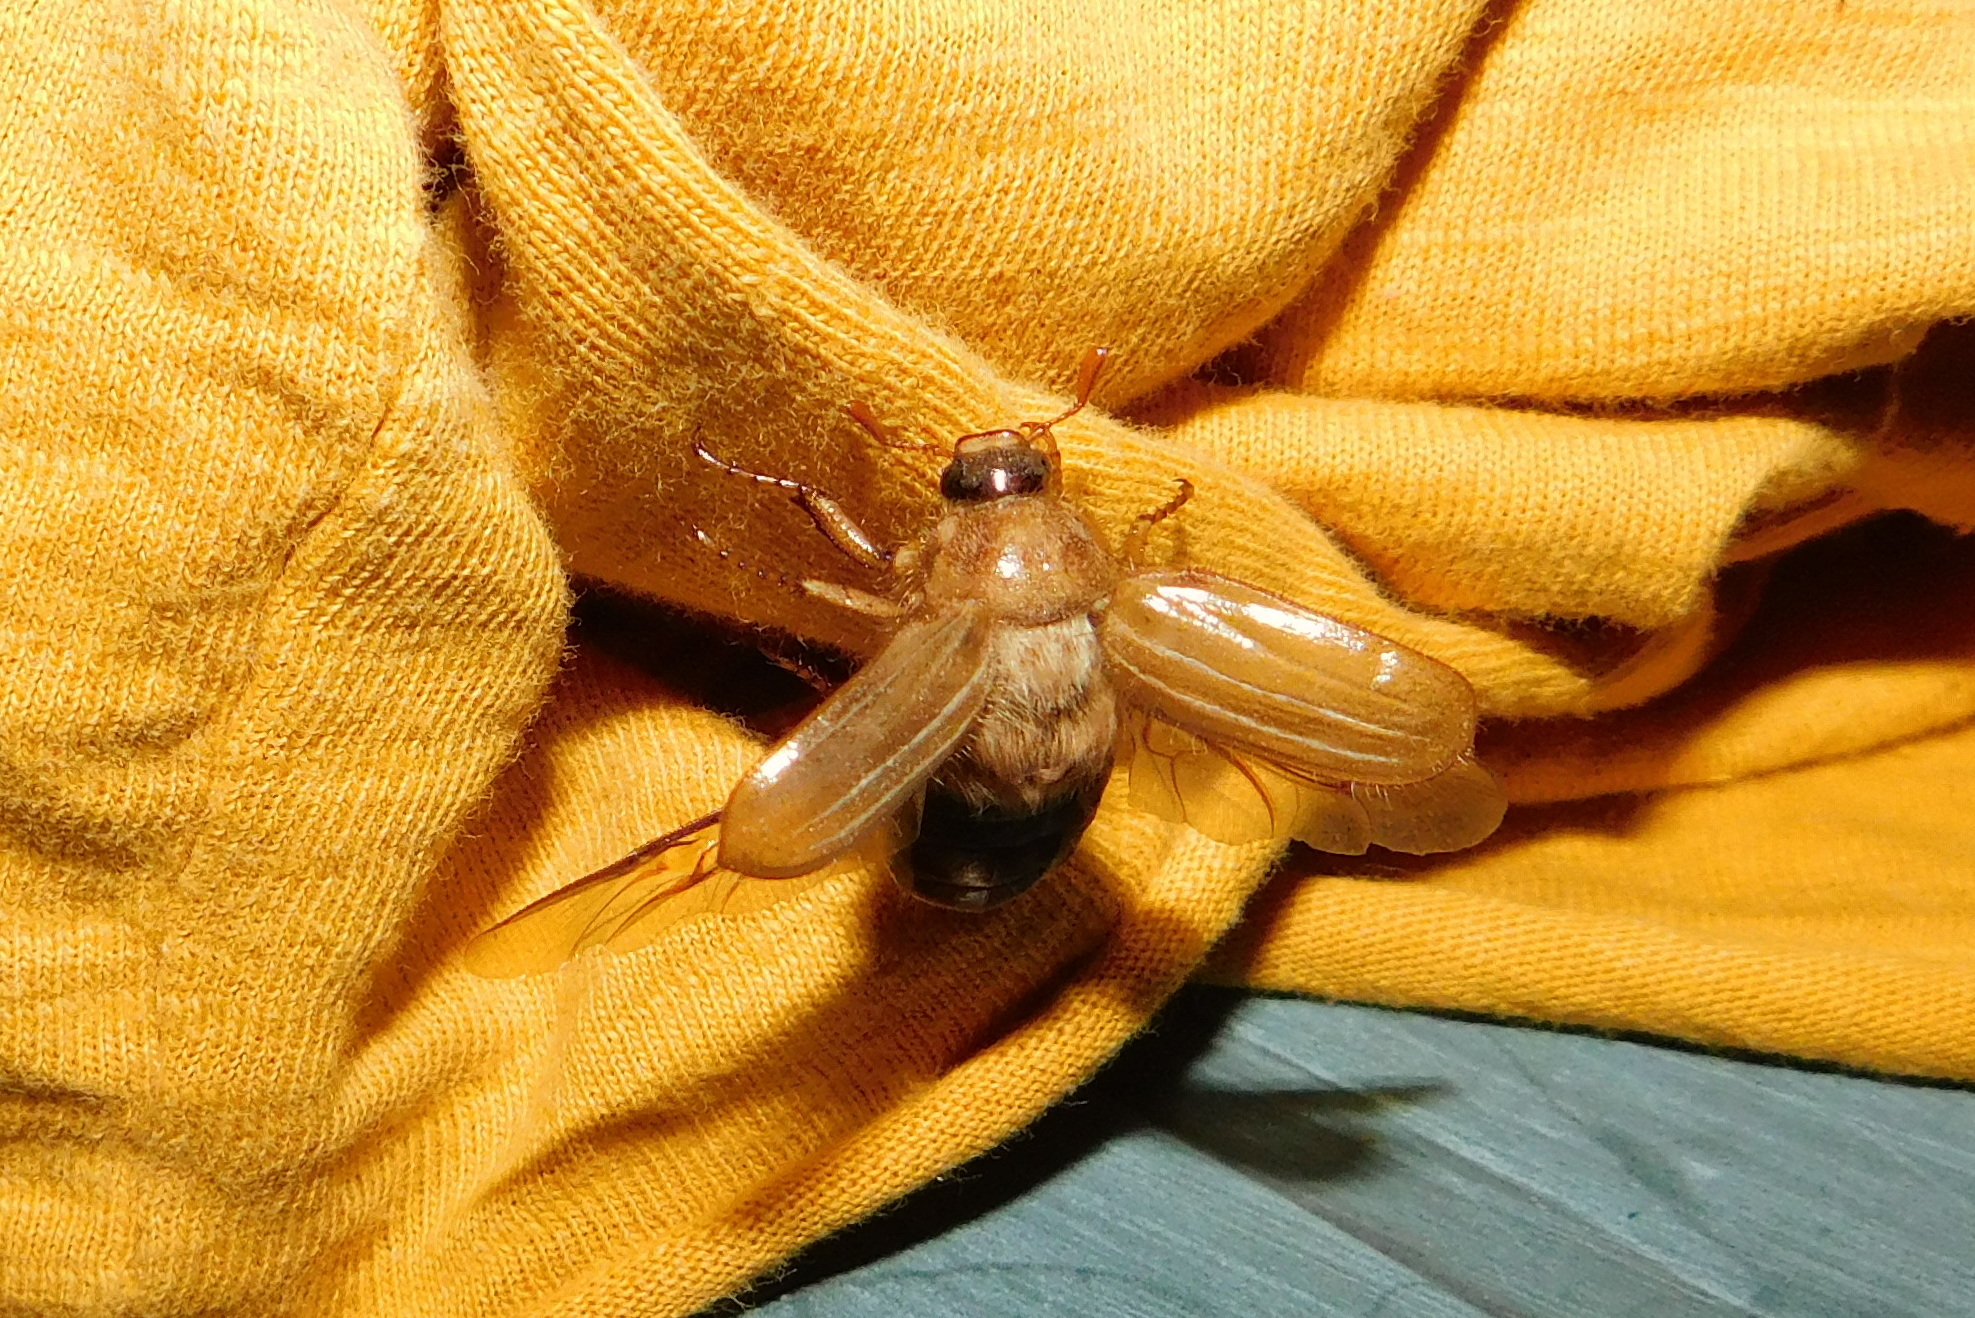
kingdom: Animalia
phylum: Arthropoda
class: Insecta
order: Coleoptera
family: Scarabaeidae
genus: Amphimallon
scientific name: Amphimallon solstitiale
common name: Summer chafer
